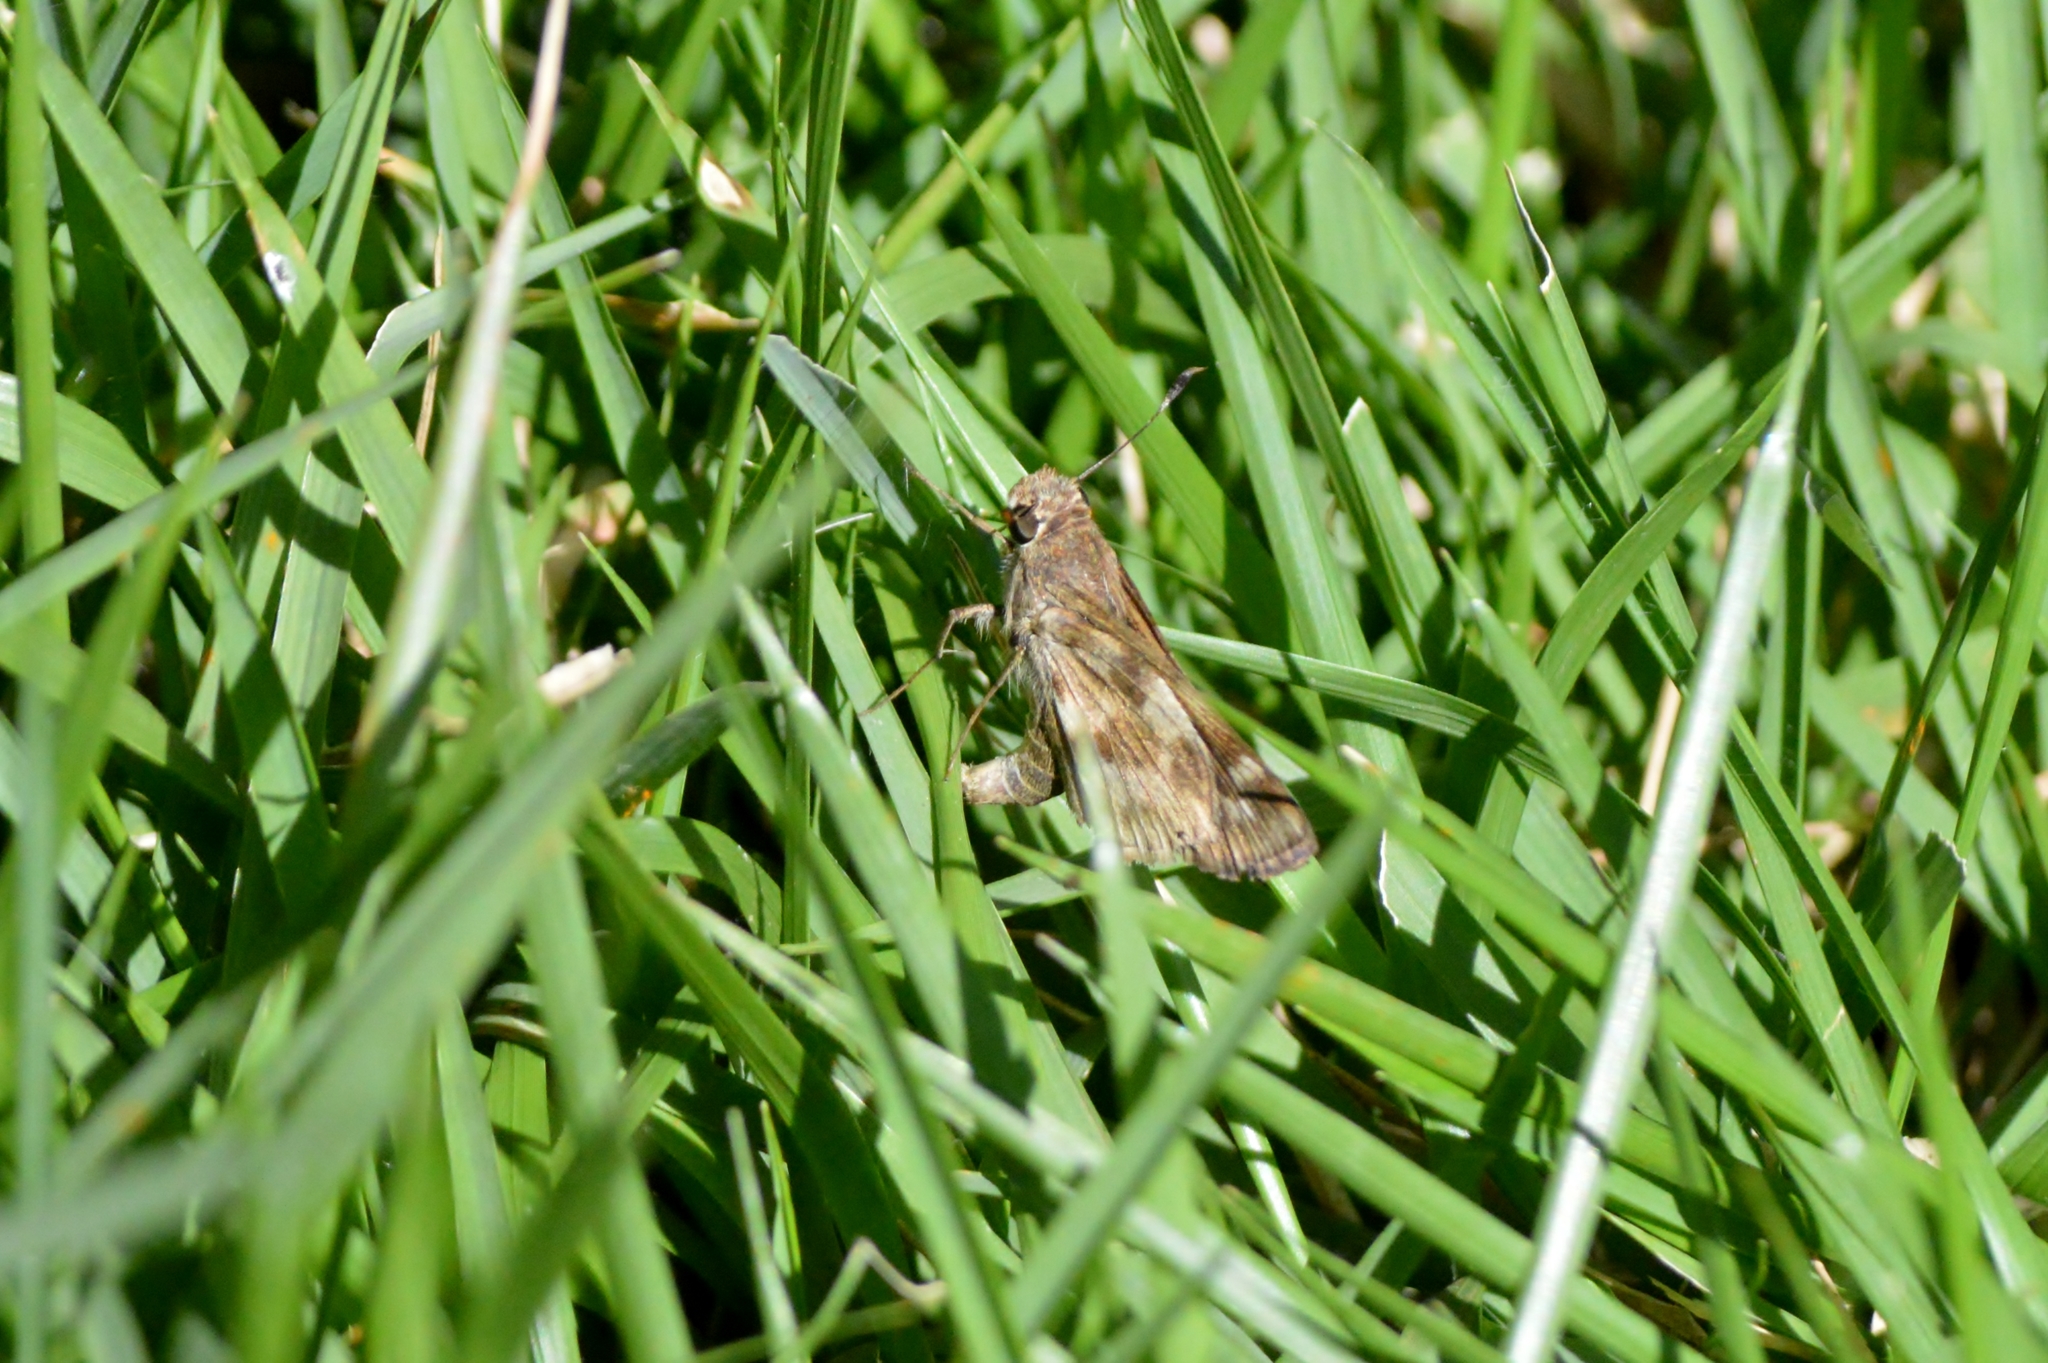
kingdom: Animalia
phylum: Arthropoda
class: Insecta
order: Lepidoptera
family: Hesperiidae
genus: Pompeius
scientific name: Pompeius pompeius
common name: Pompeius skipper
